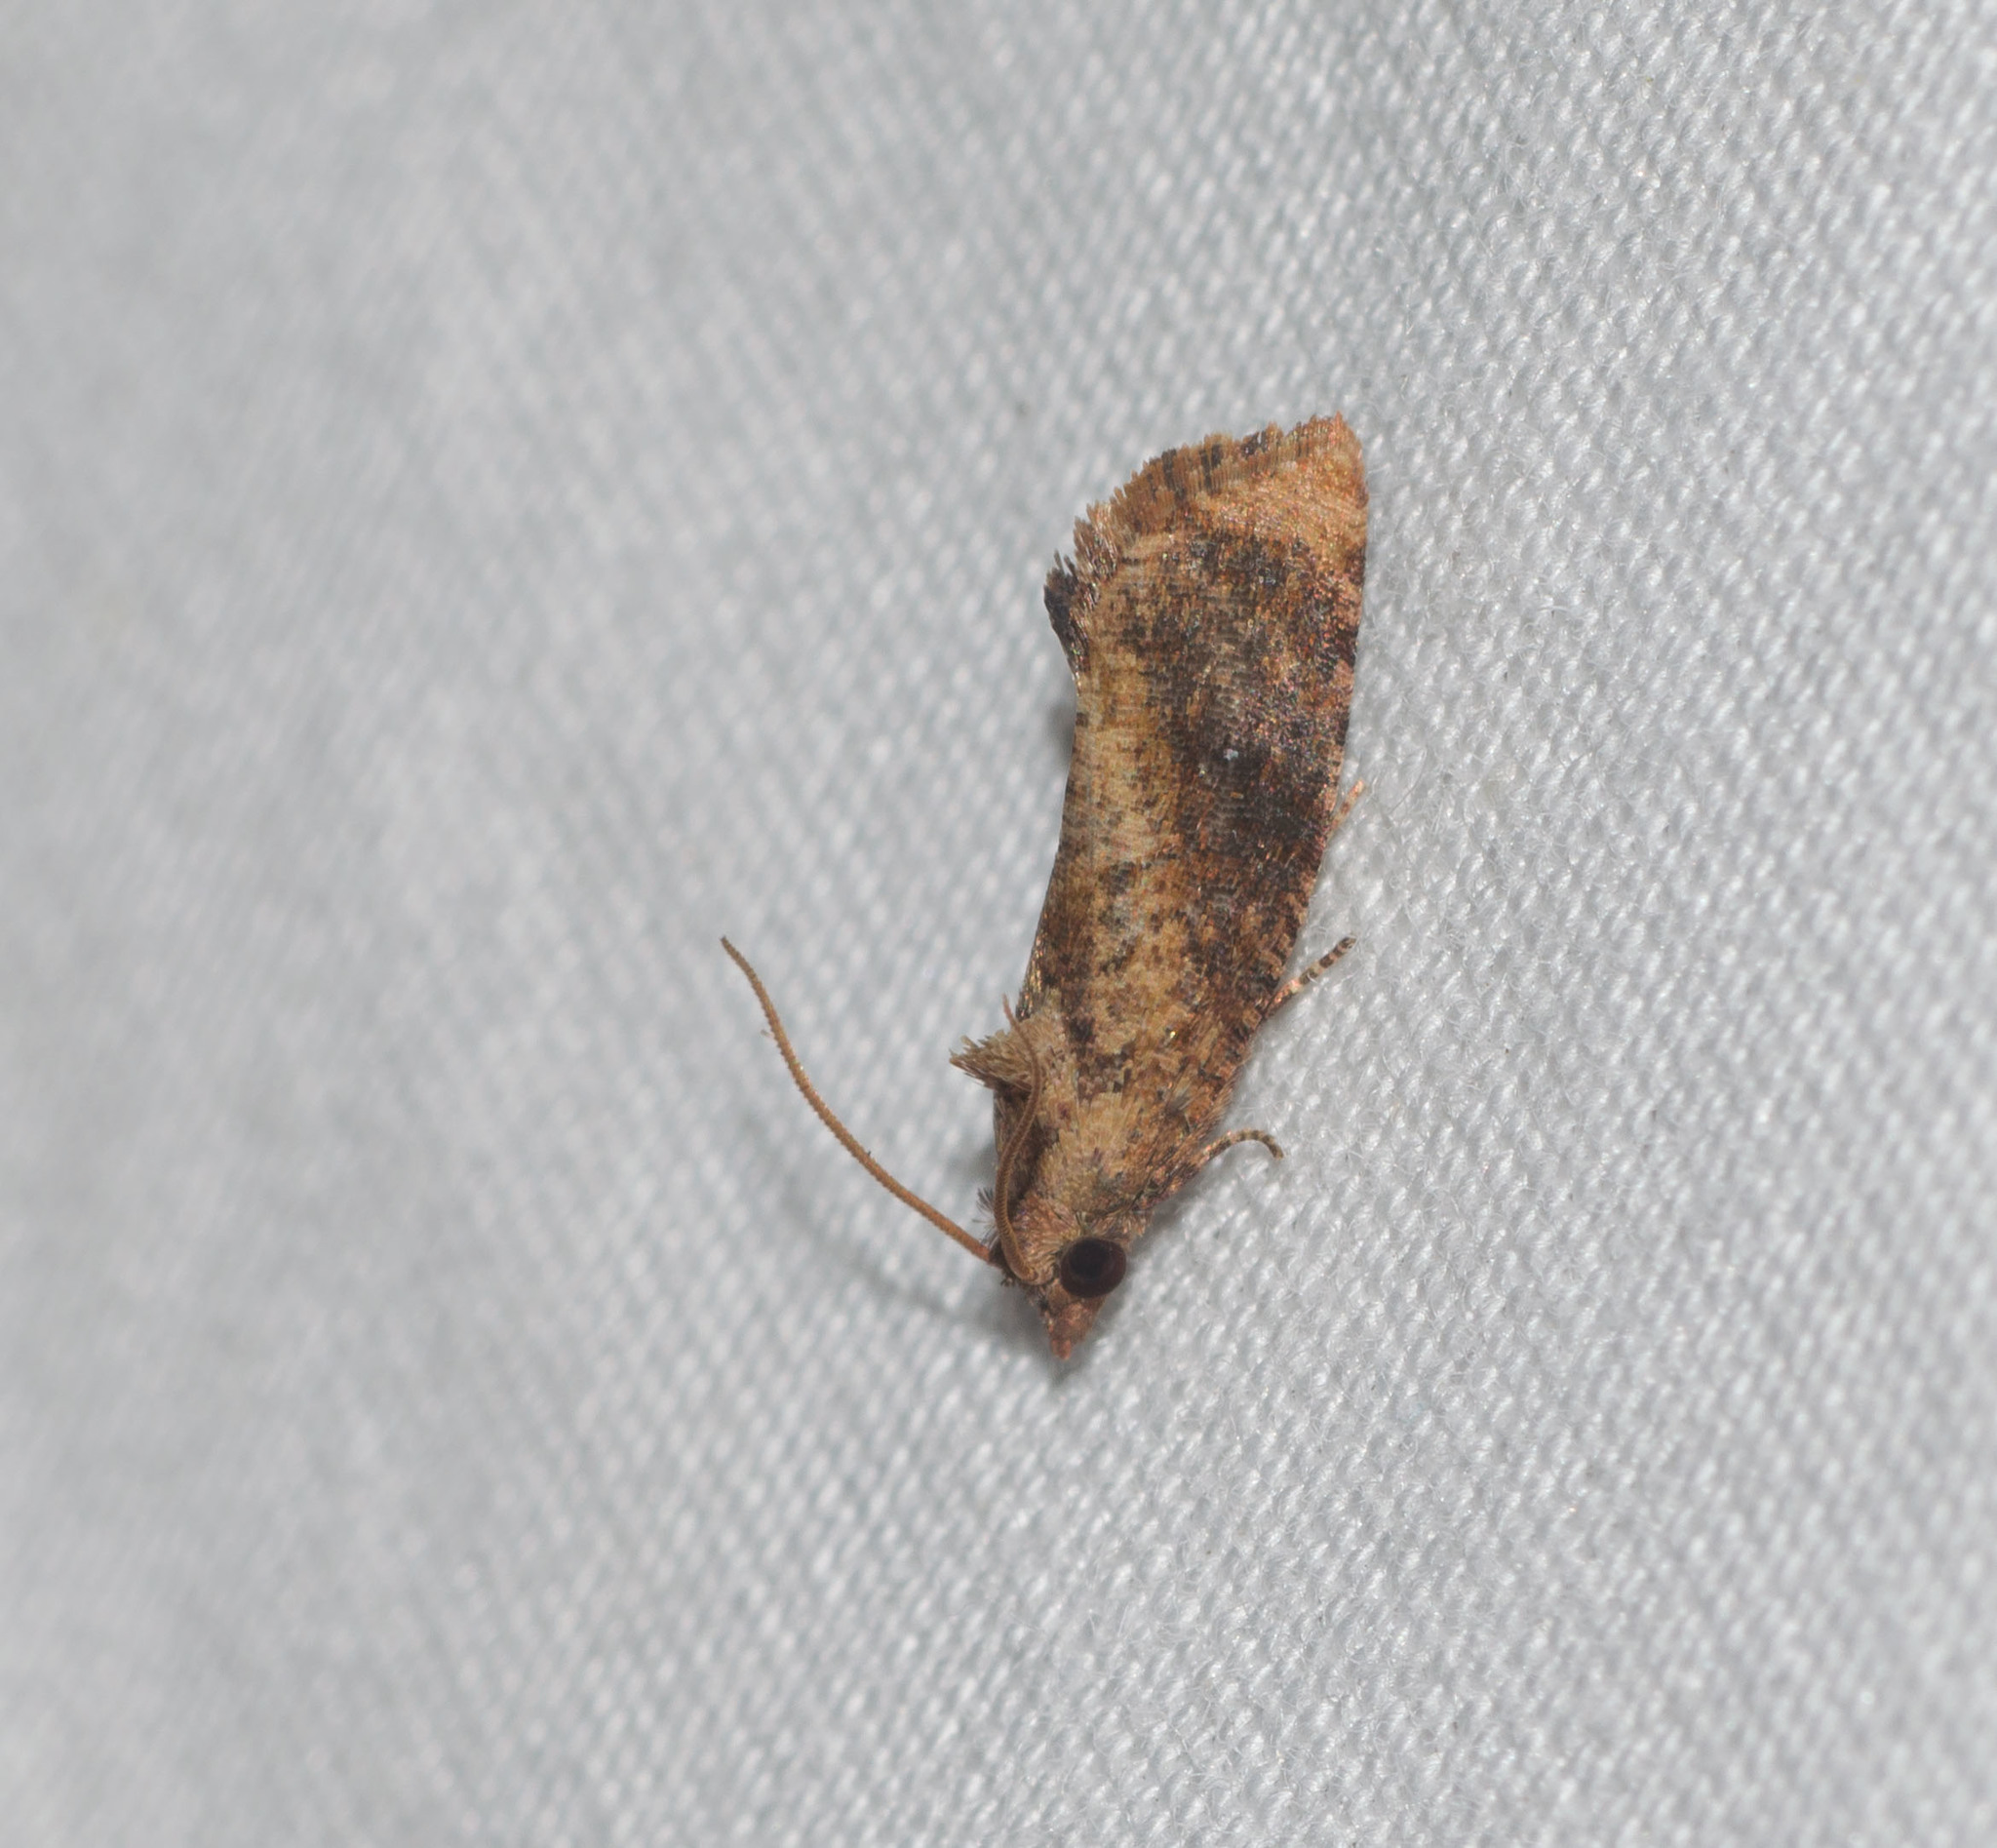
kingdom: Animalia
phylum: Arthropoda
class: Insecta
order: Lepidoptera
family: Tortricidae
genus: Cryptophlebia
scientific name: Cryptophlebia illepida
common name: Moth
